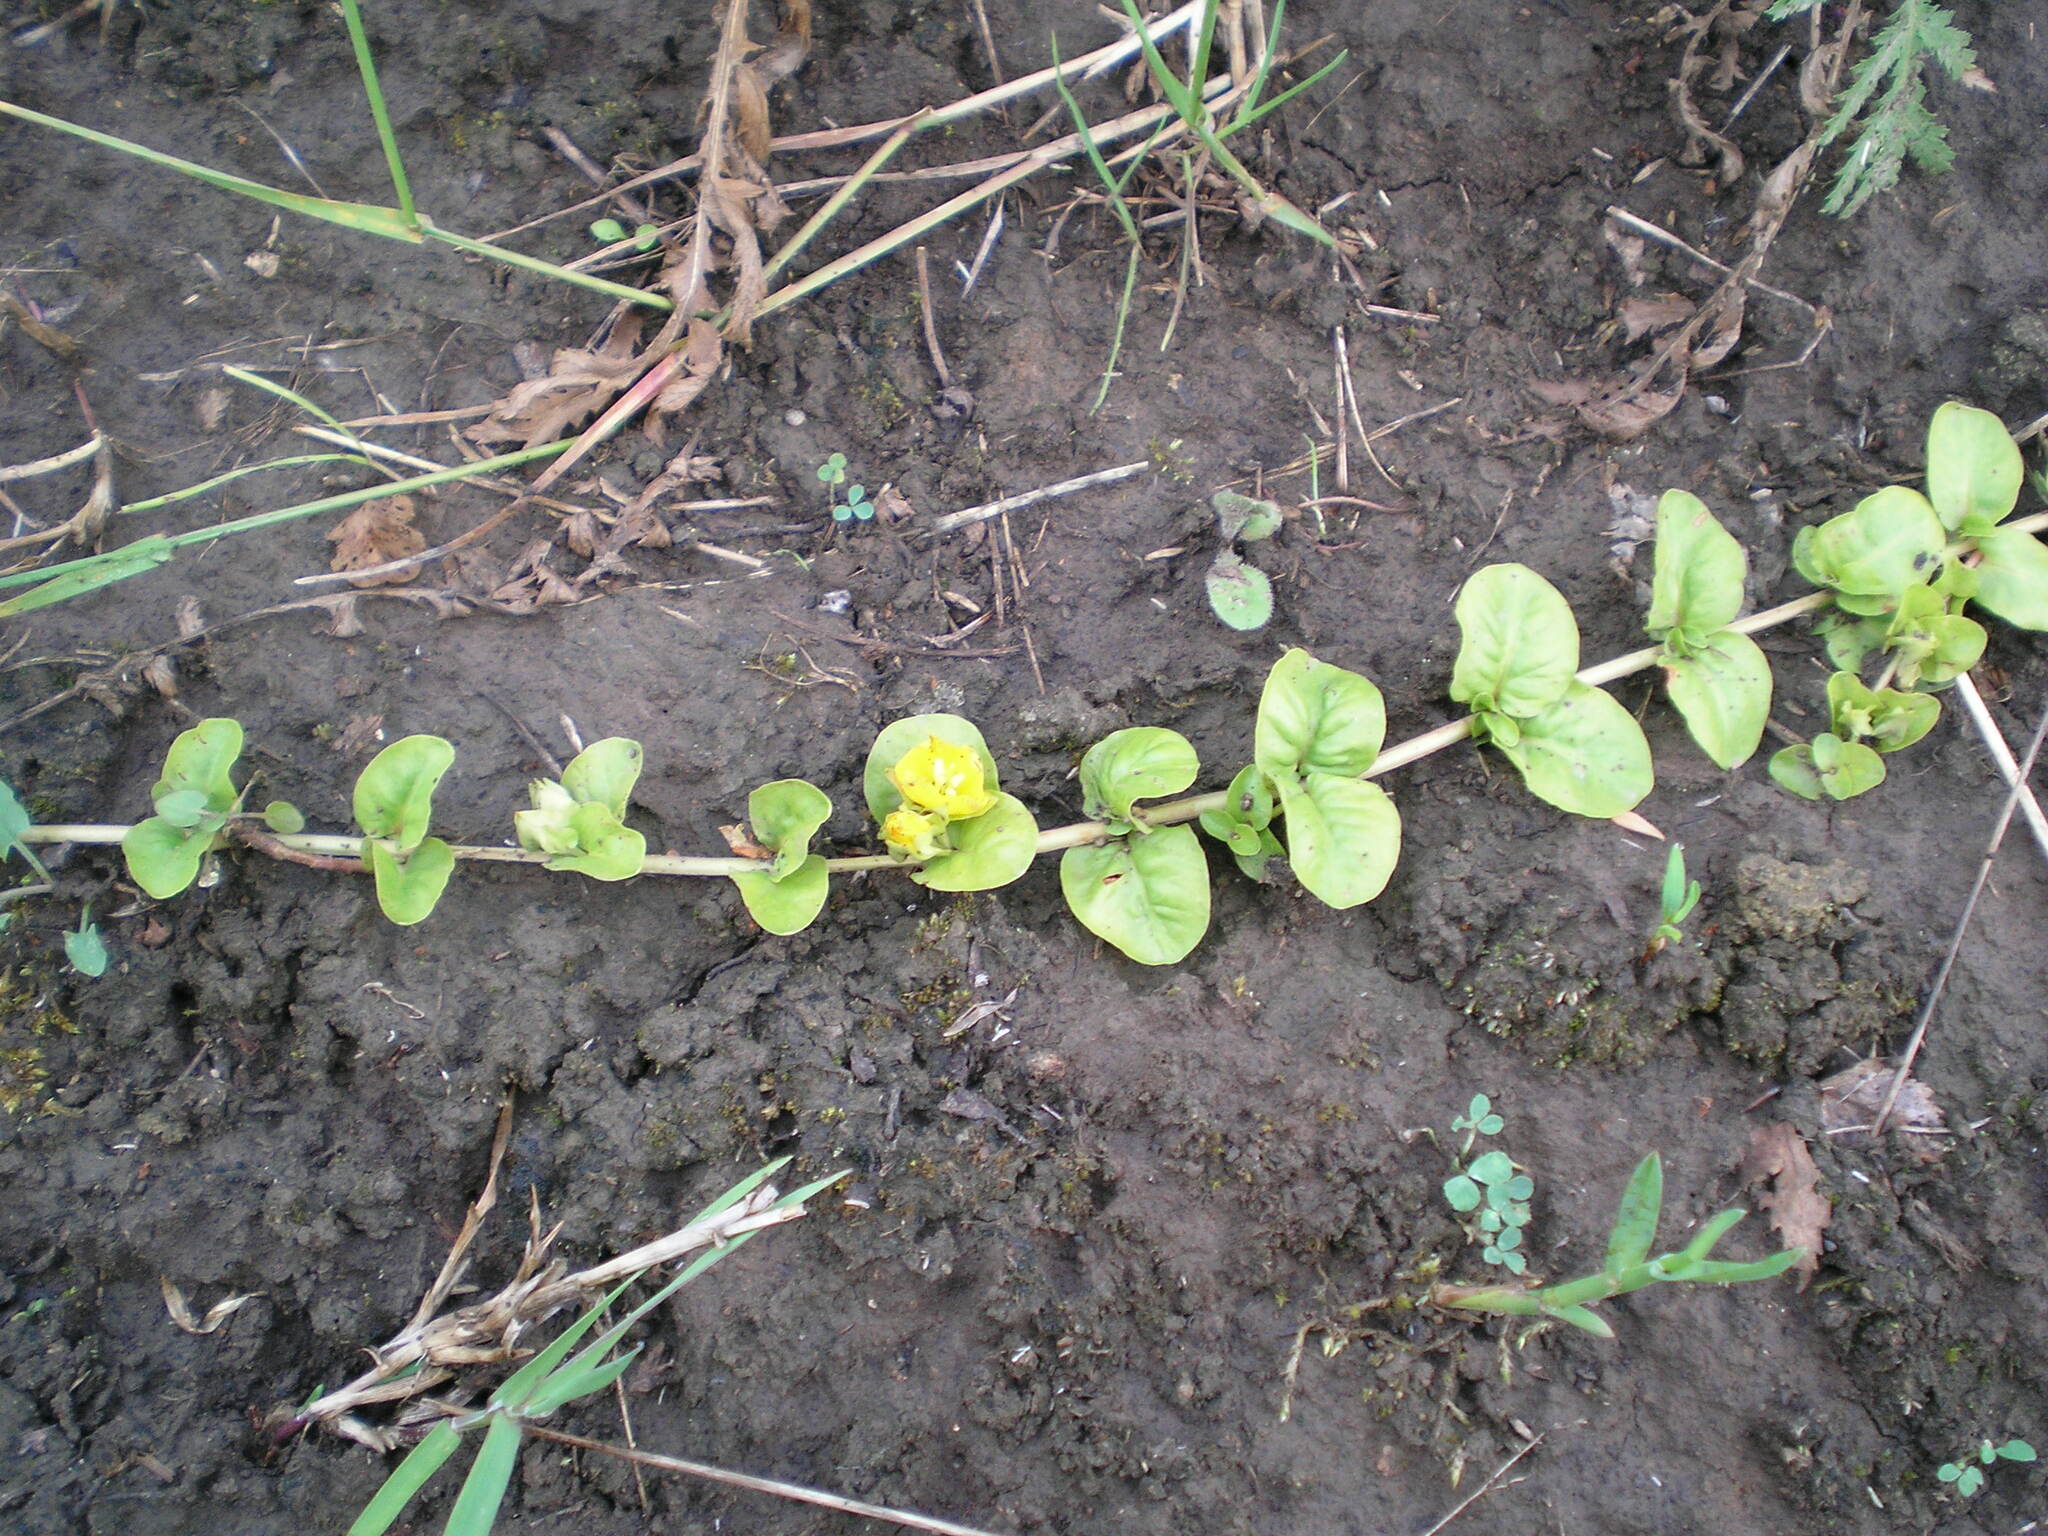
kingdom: Plantae
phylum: Tracheophyta
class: Magnoliopsida
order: Ericales
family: Primulaceae
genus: Lysimachia
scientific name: Lysimachia nummularia
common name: Moneywort
